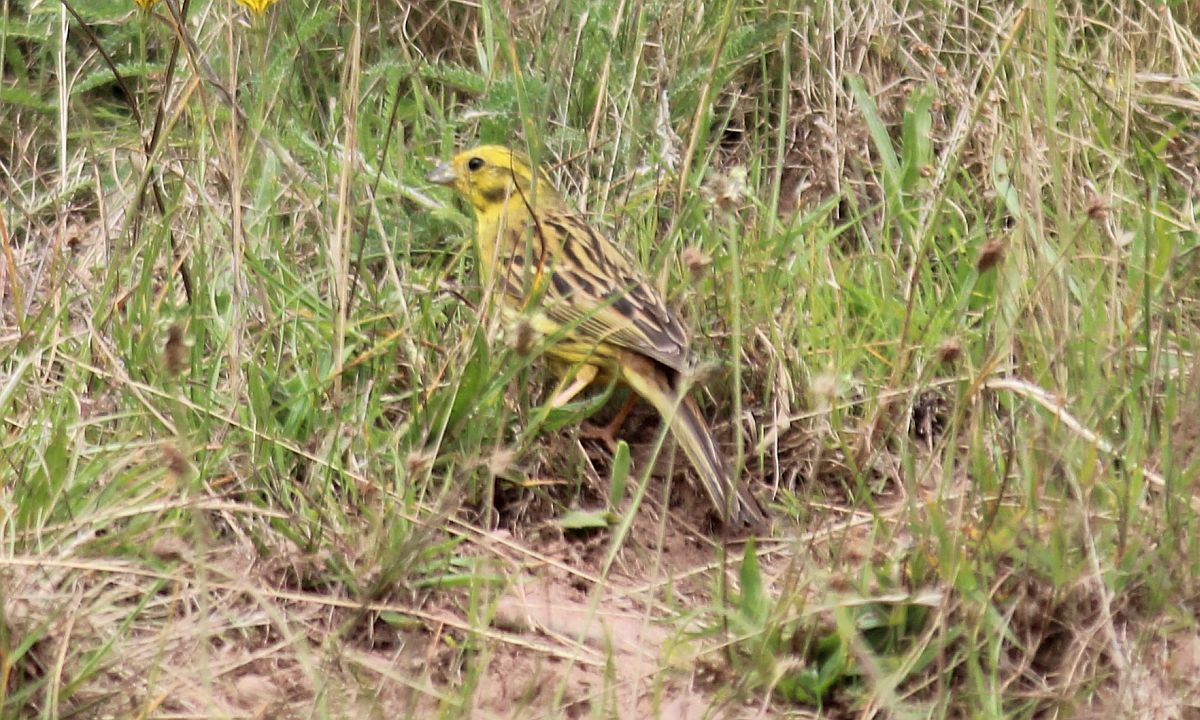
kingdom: Animalia
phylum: Chordata
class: Aves
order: Passeriformes
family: Emberizidae
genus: Emberiza
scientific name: Emberiza citrinella
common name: Yellowhammer
